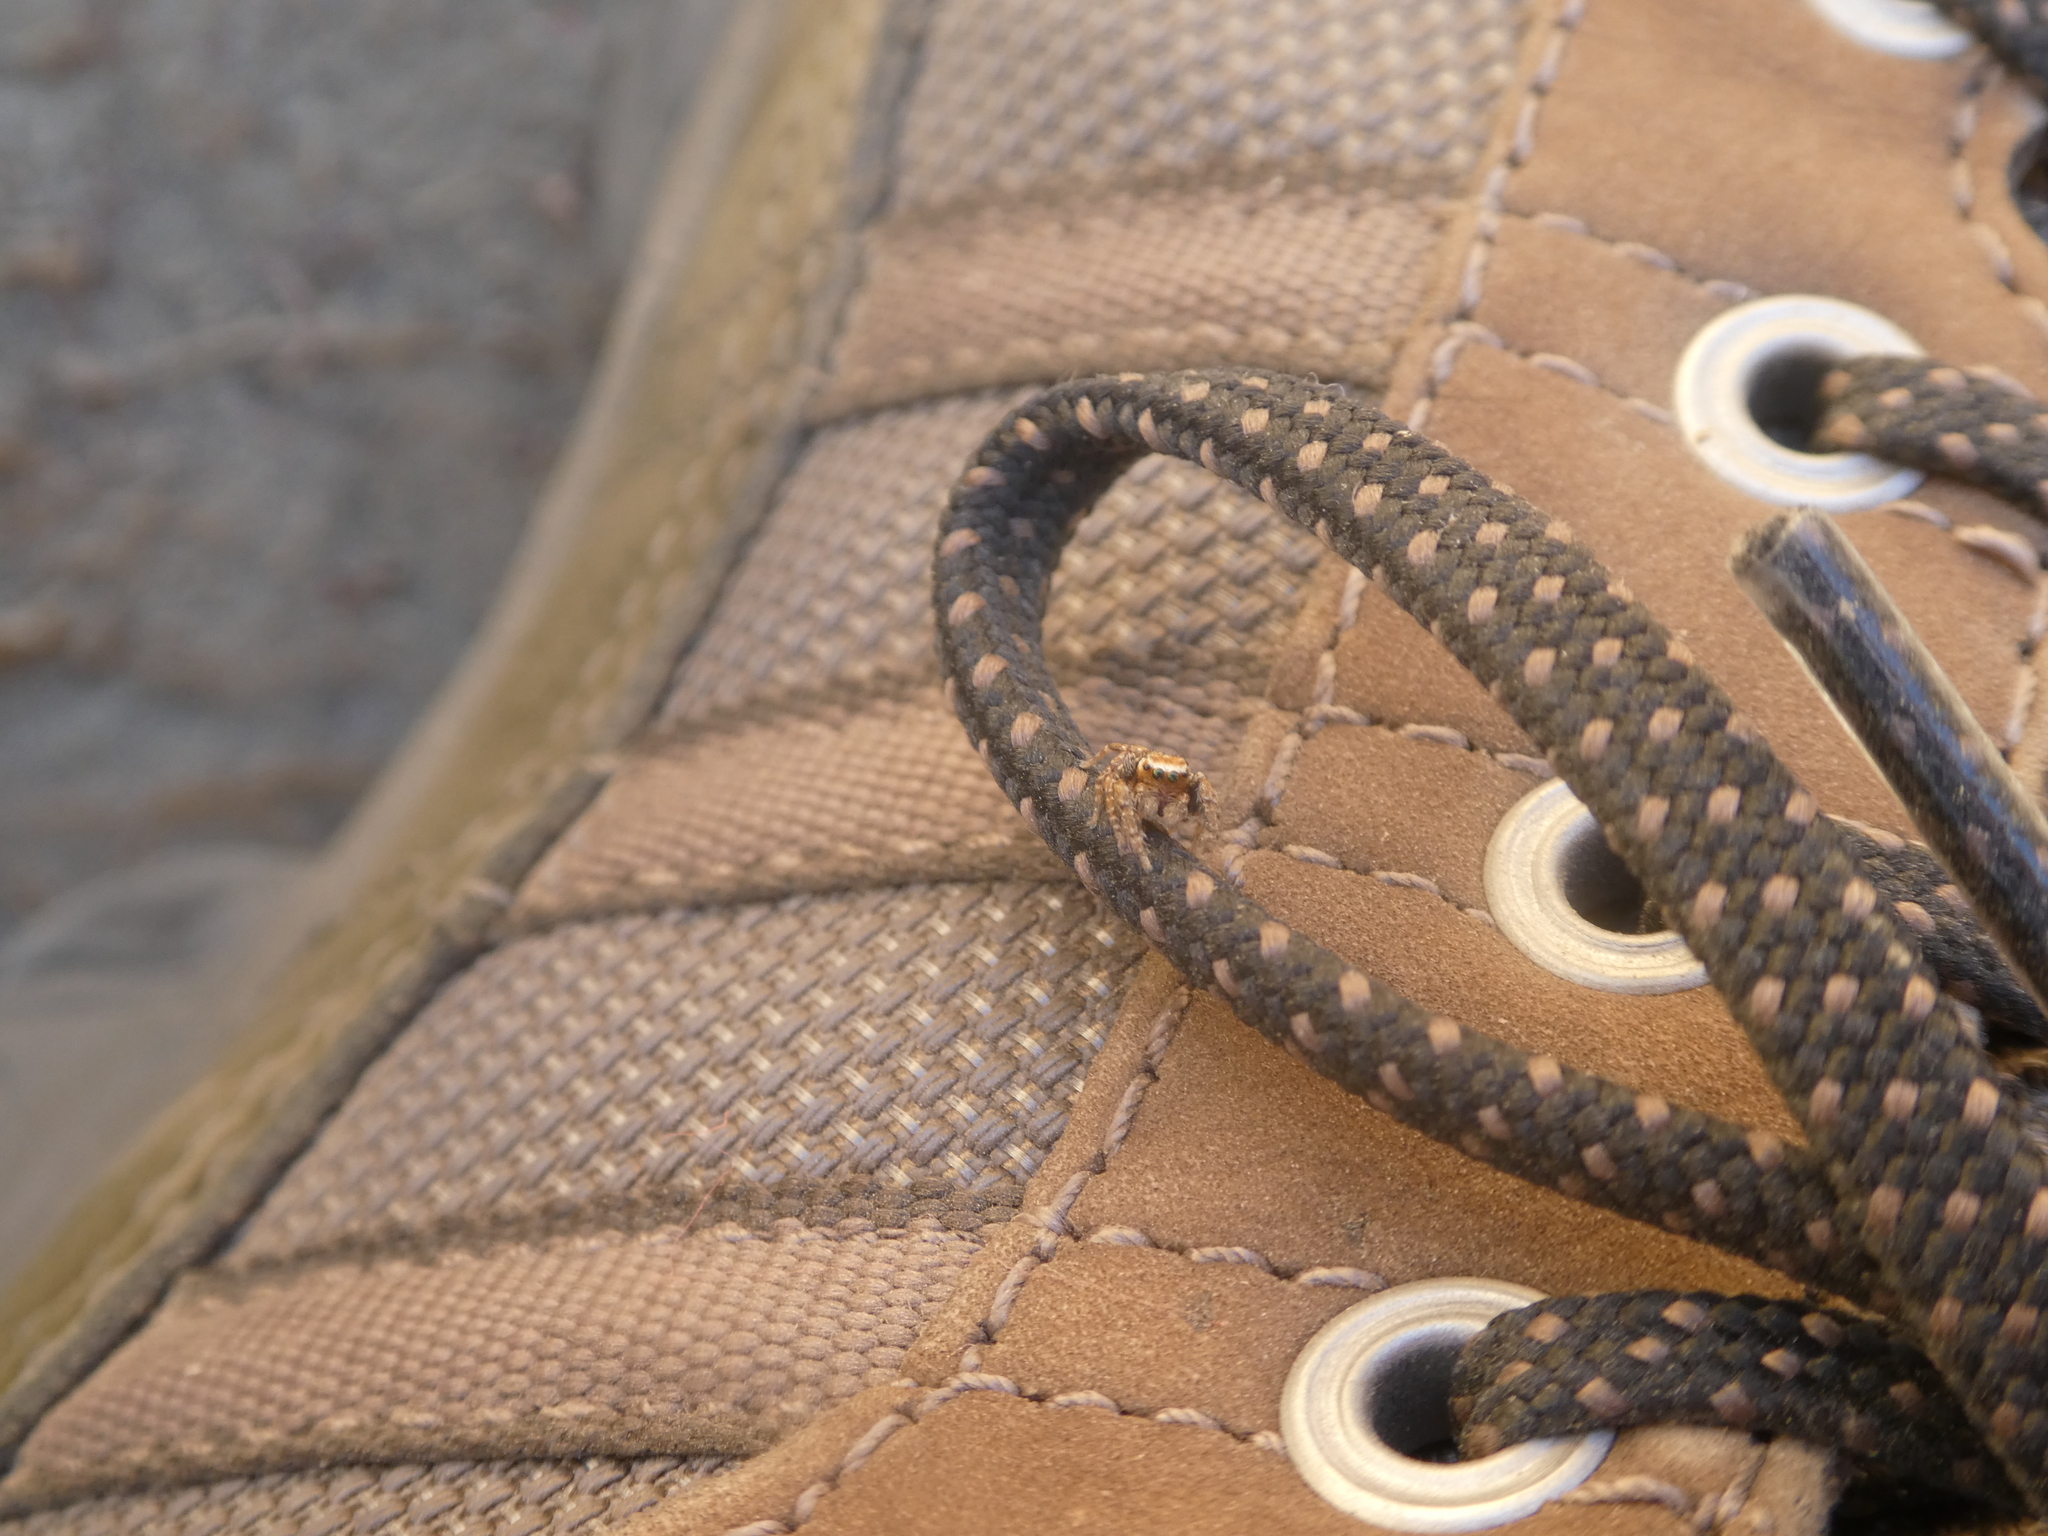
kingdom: Animalia
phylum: Arthropoda
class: Arachnida
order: Araneae
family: Salticidae
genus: Evarcha
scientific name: Evarcha proszynskii
